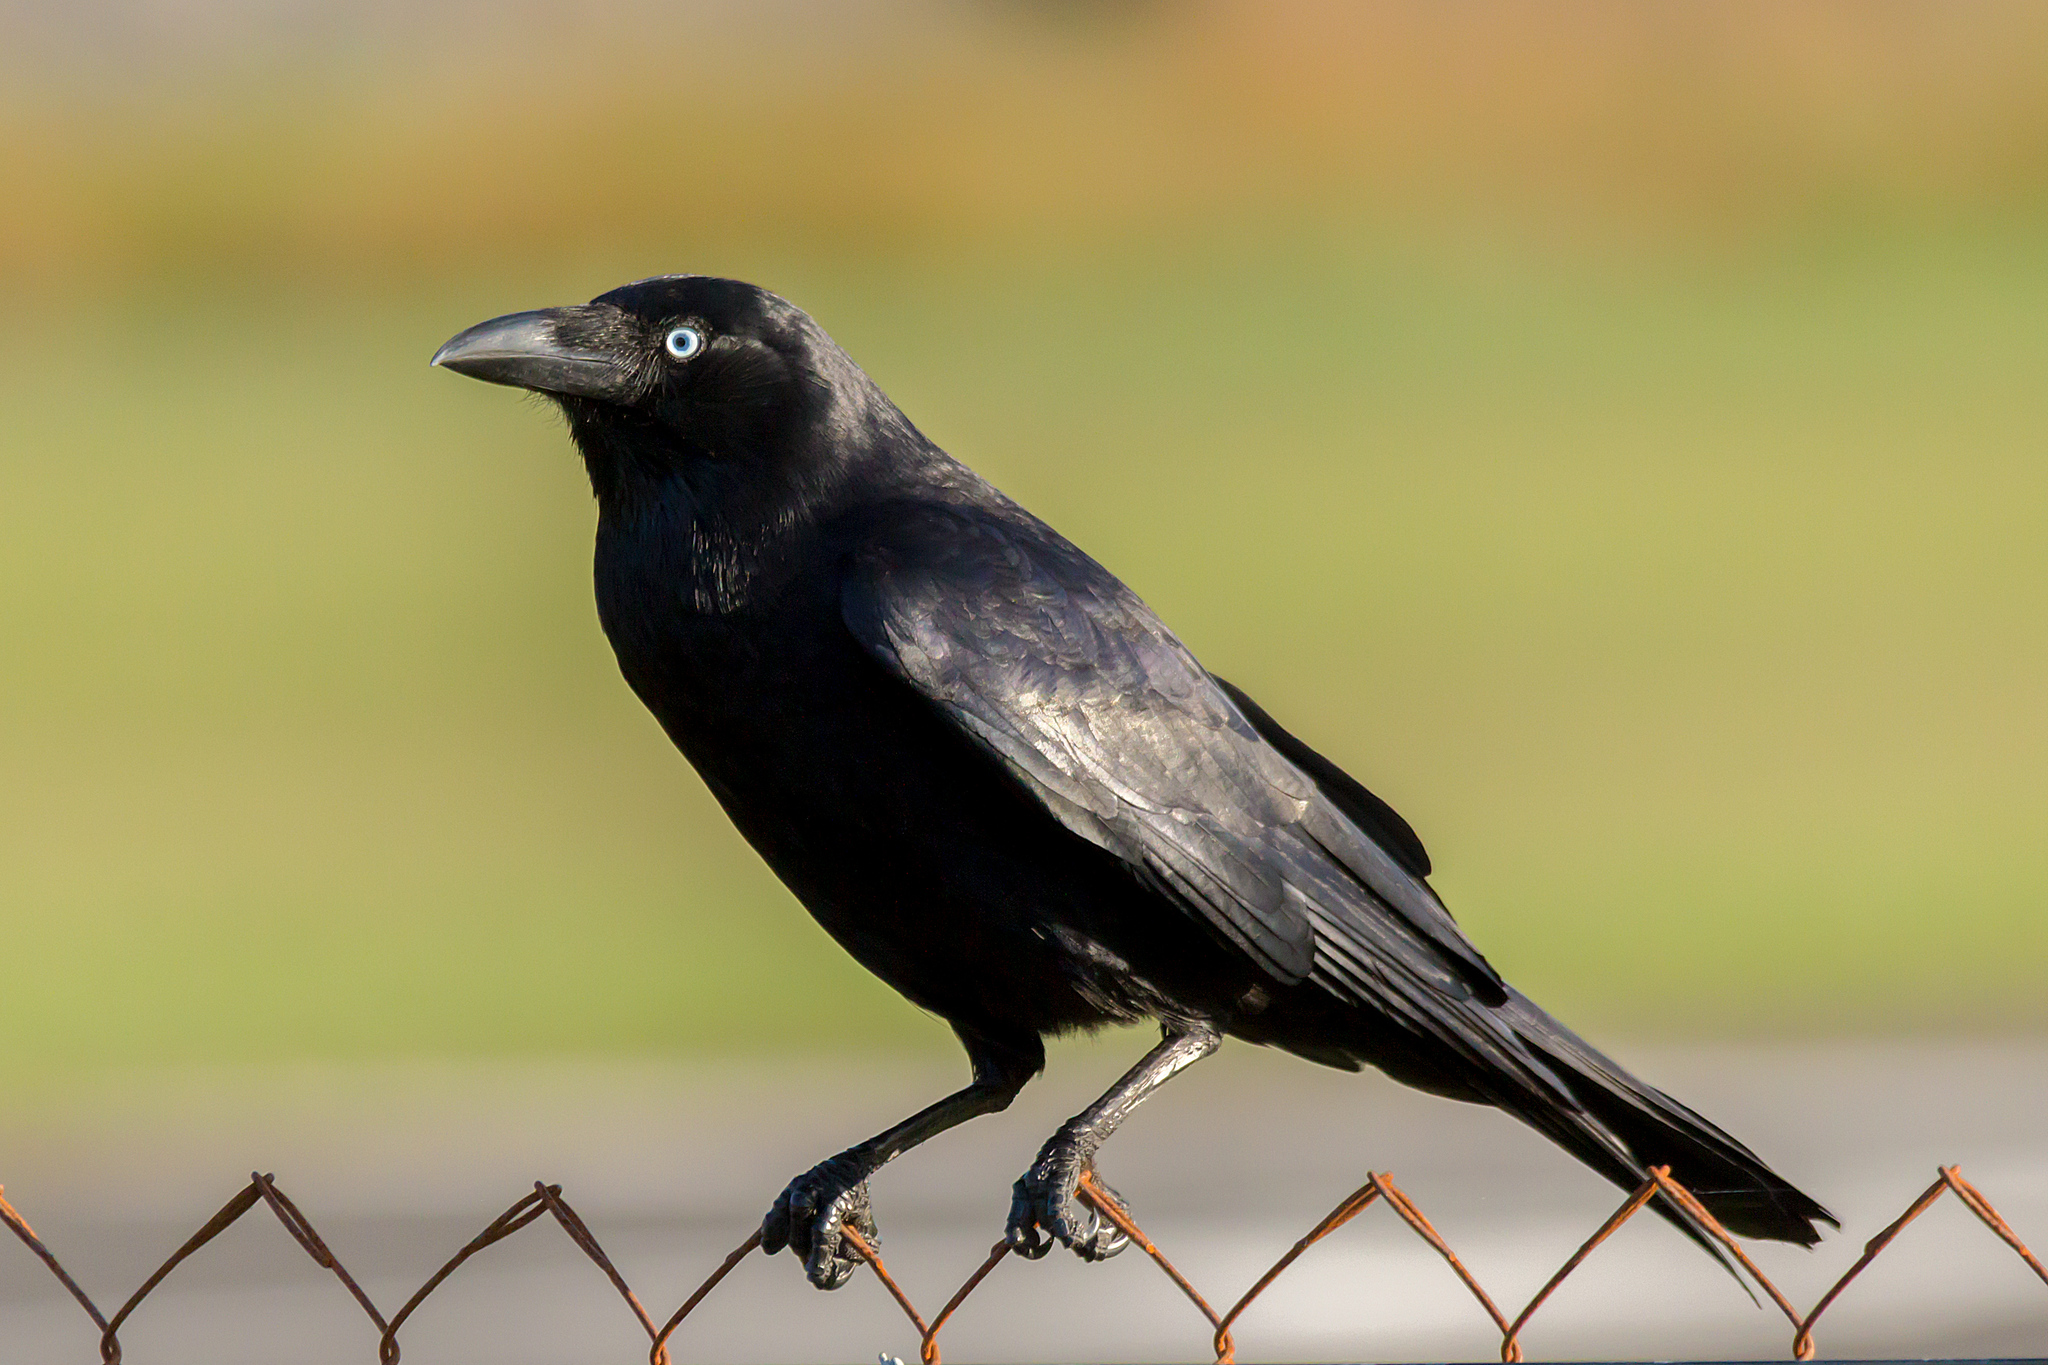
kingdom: Animalia
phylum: Chordata
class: Aves
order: Passeriformes
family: Corvidae
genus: Corvus
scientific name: Corvus orru
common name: Torresian crow
